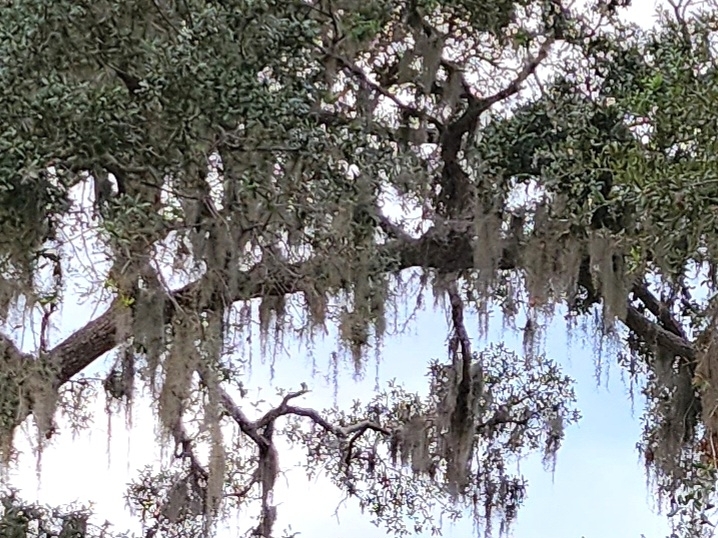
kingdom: Plantae
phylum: Tracheophyta
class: Liliopsida
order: Poales
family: Bromeliaceae
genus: Tillandsia
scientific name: Tillandsia usneoides
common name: Spanish moss
